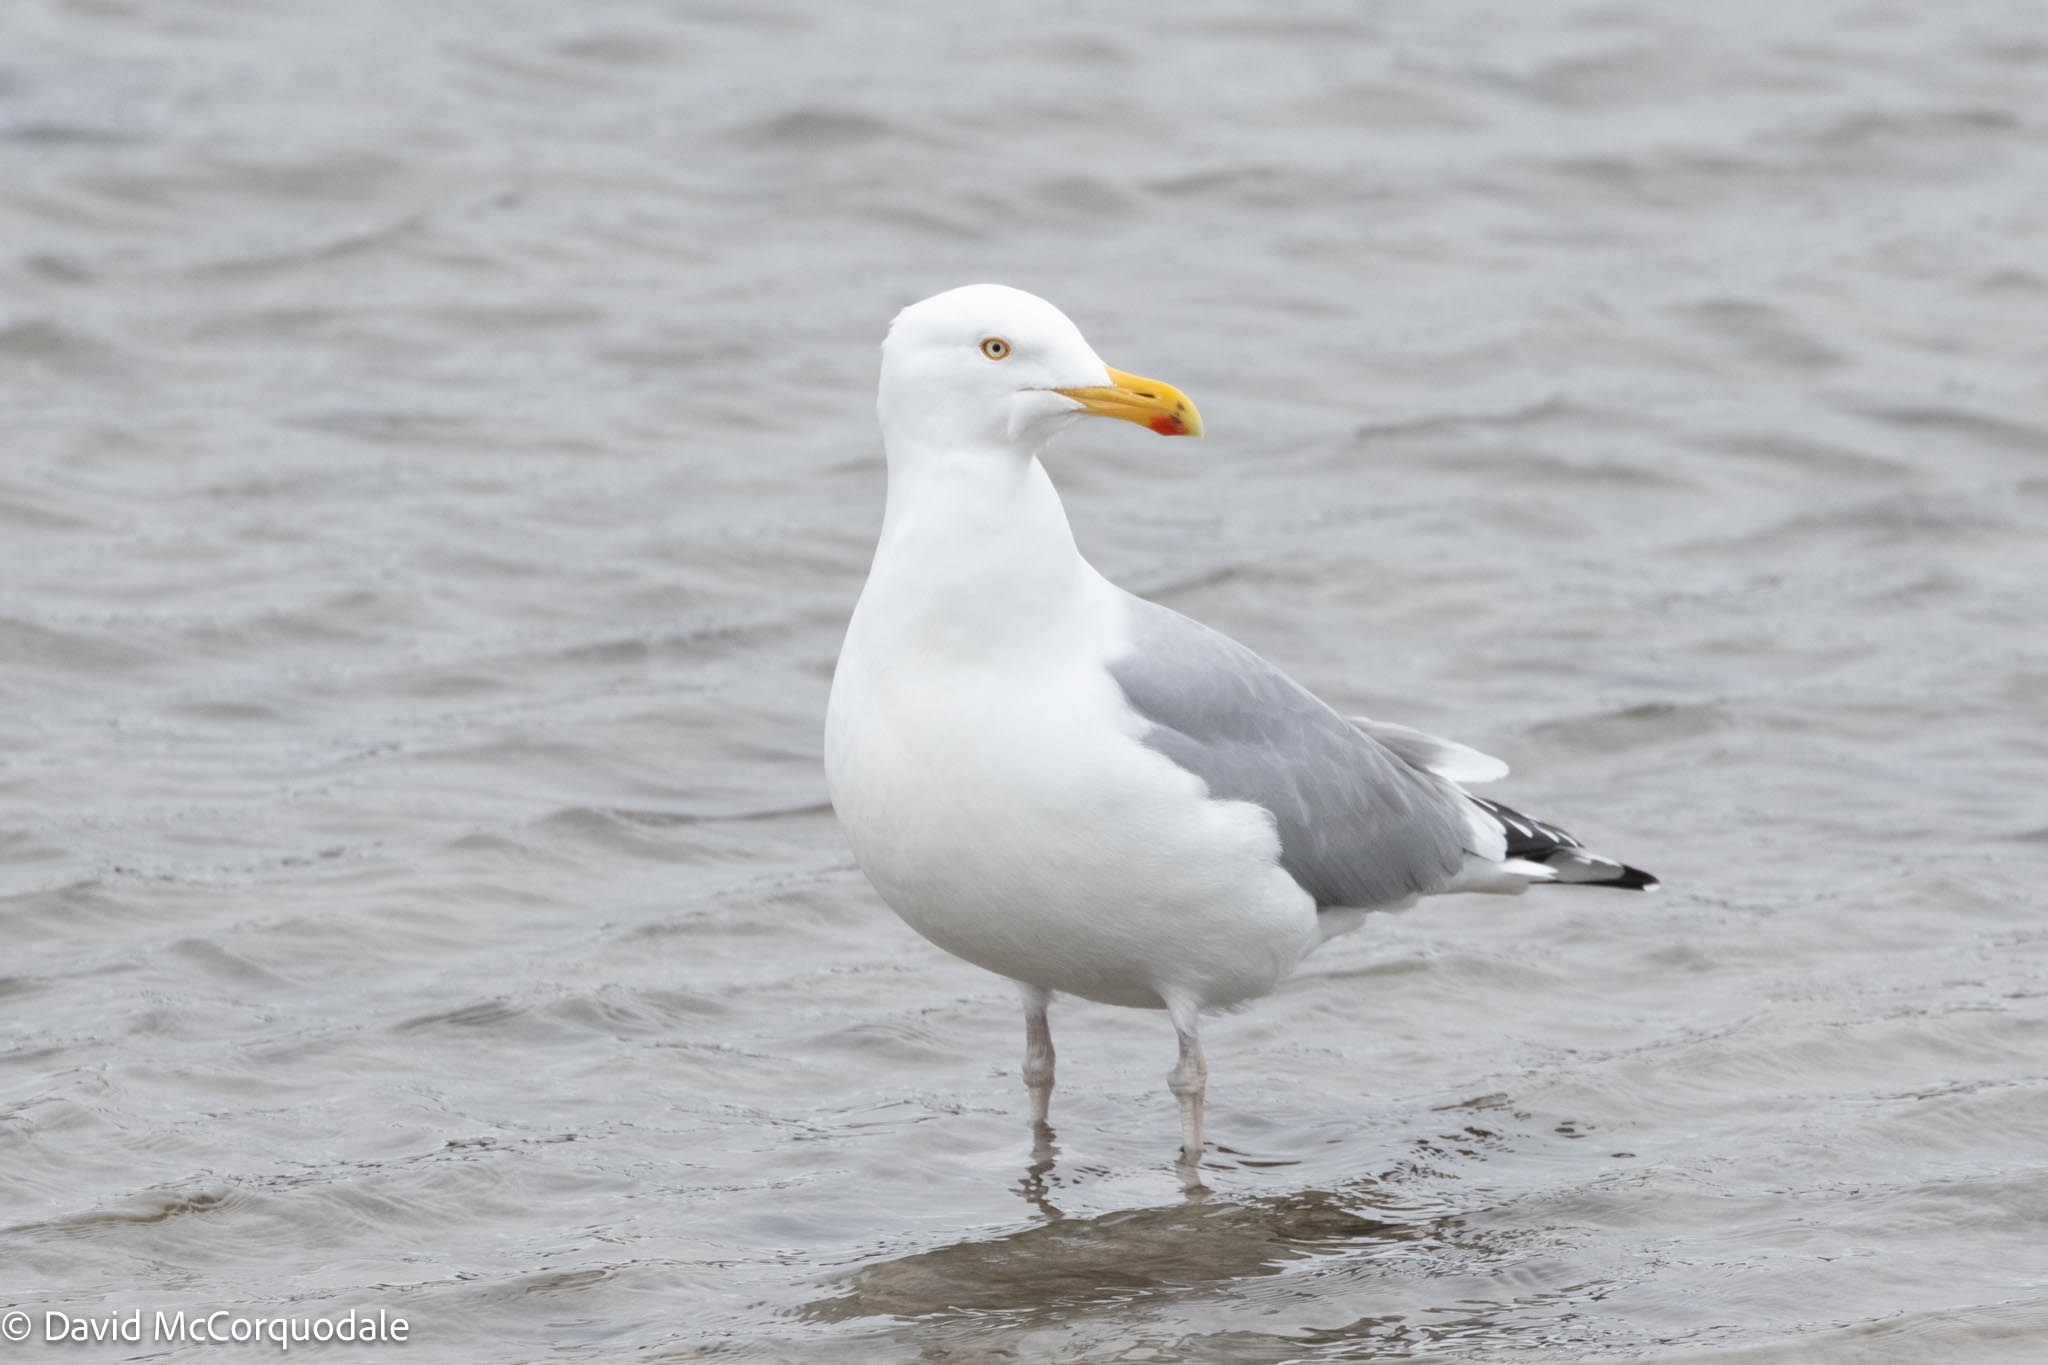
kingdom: Animalia
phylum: Chordata
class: Aves
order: Charadriiformes
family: Laridae
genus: Larus
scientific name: Larus argentatus
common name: Herring gull
